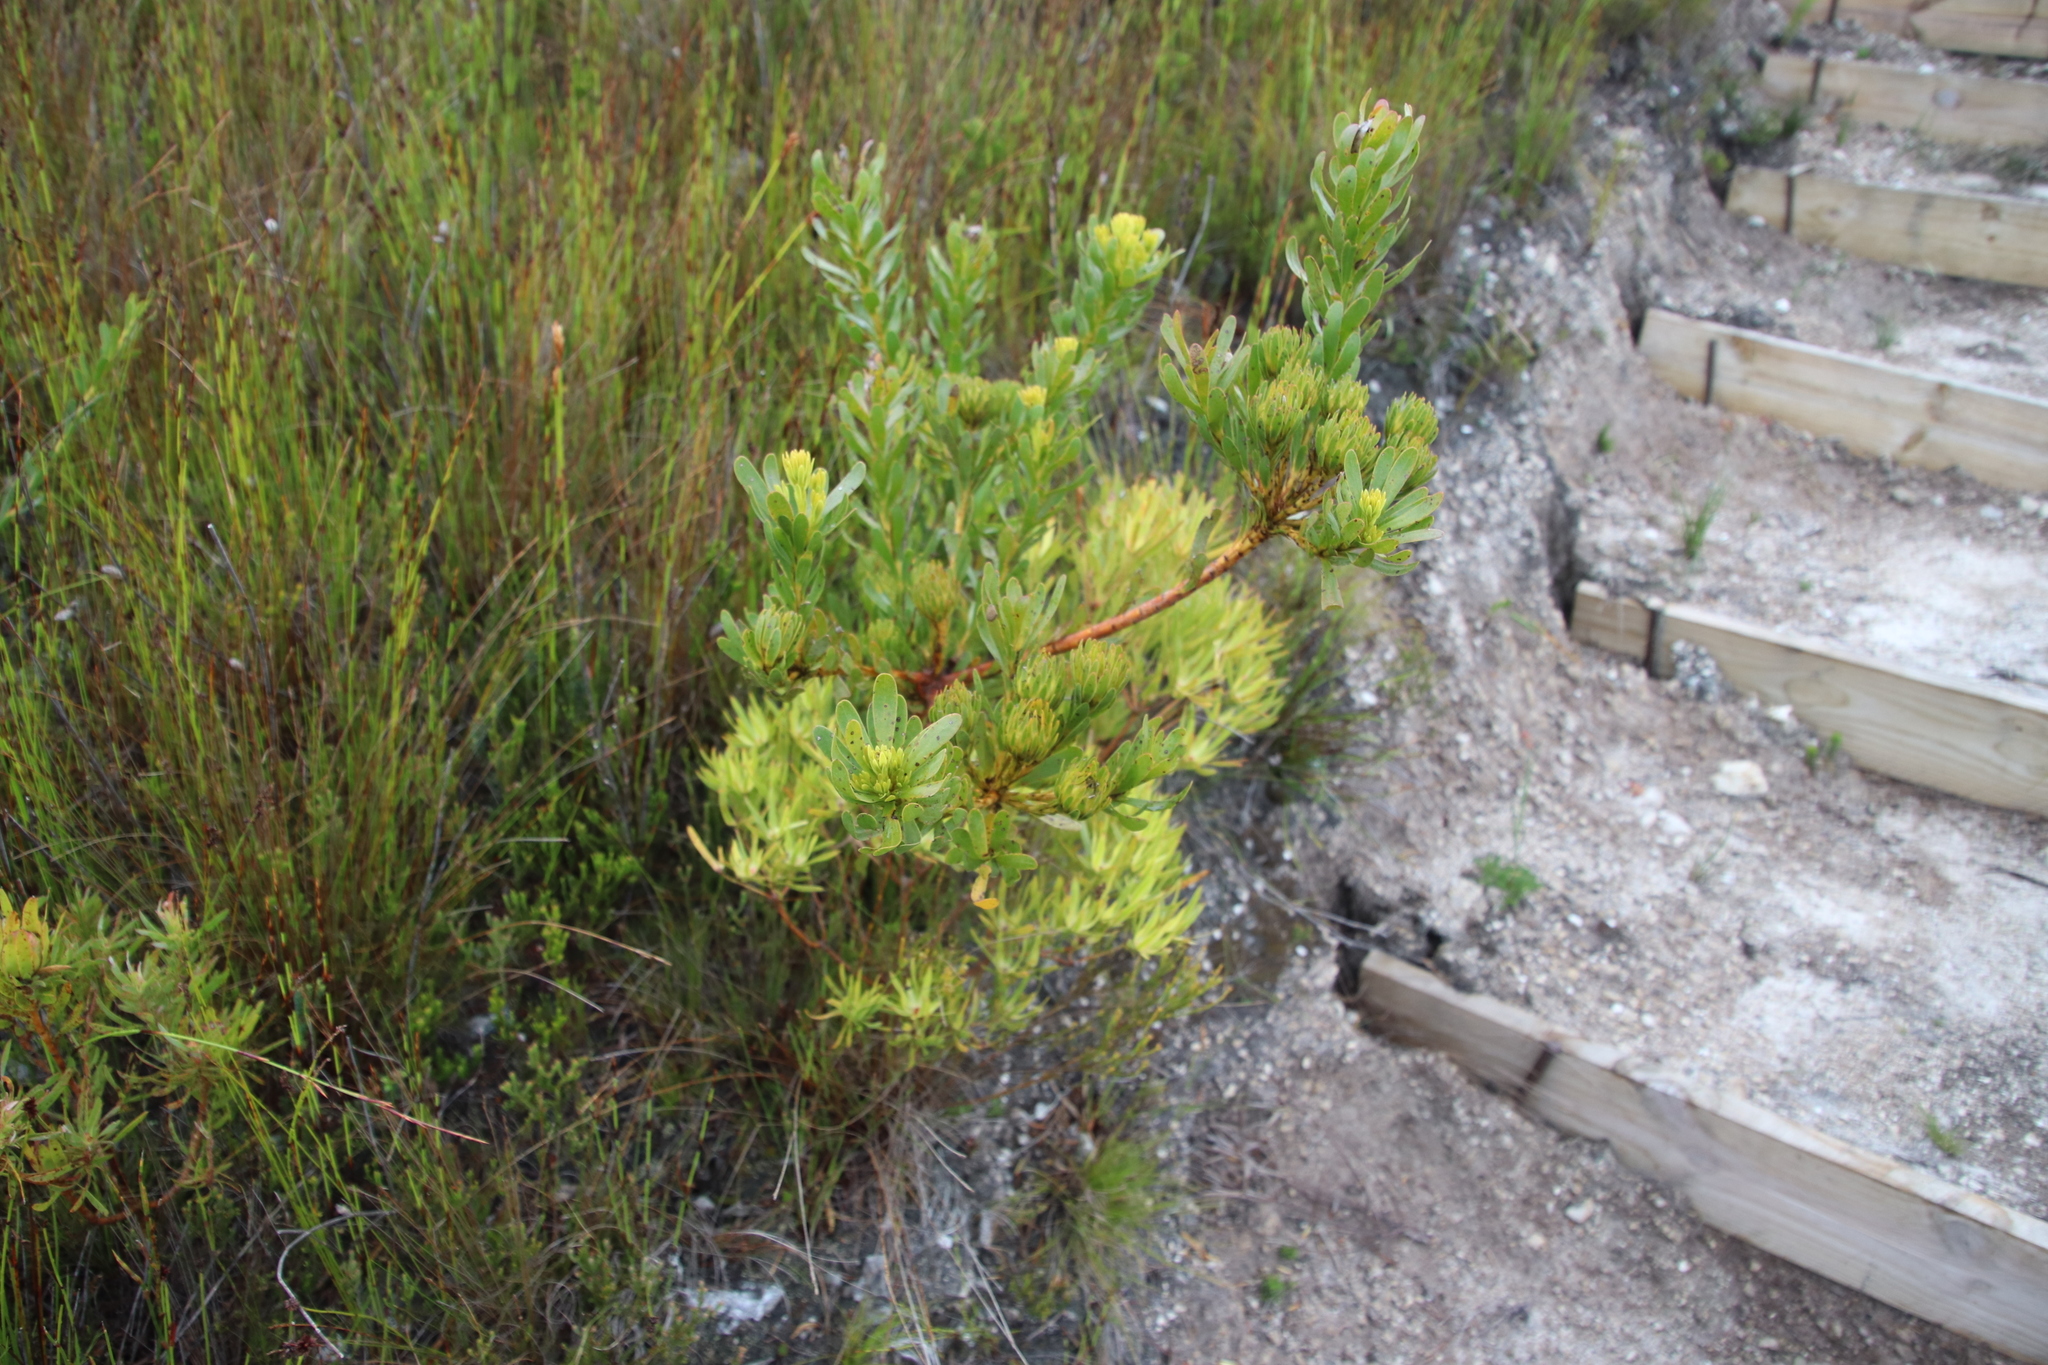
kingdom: Plantae
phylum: Tracheophyta
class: Magnoliopsida
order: Proteales
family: Proteaceae
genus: Aulax
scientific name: Aulax umbellata
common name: Broad-leaf featherbush
